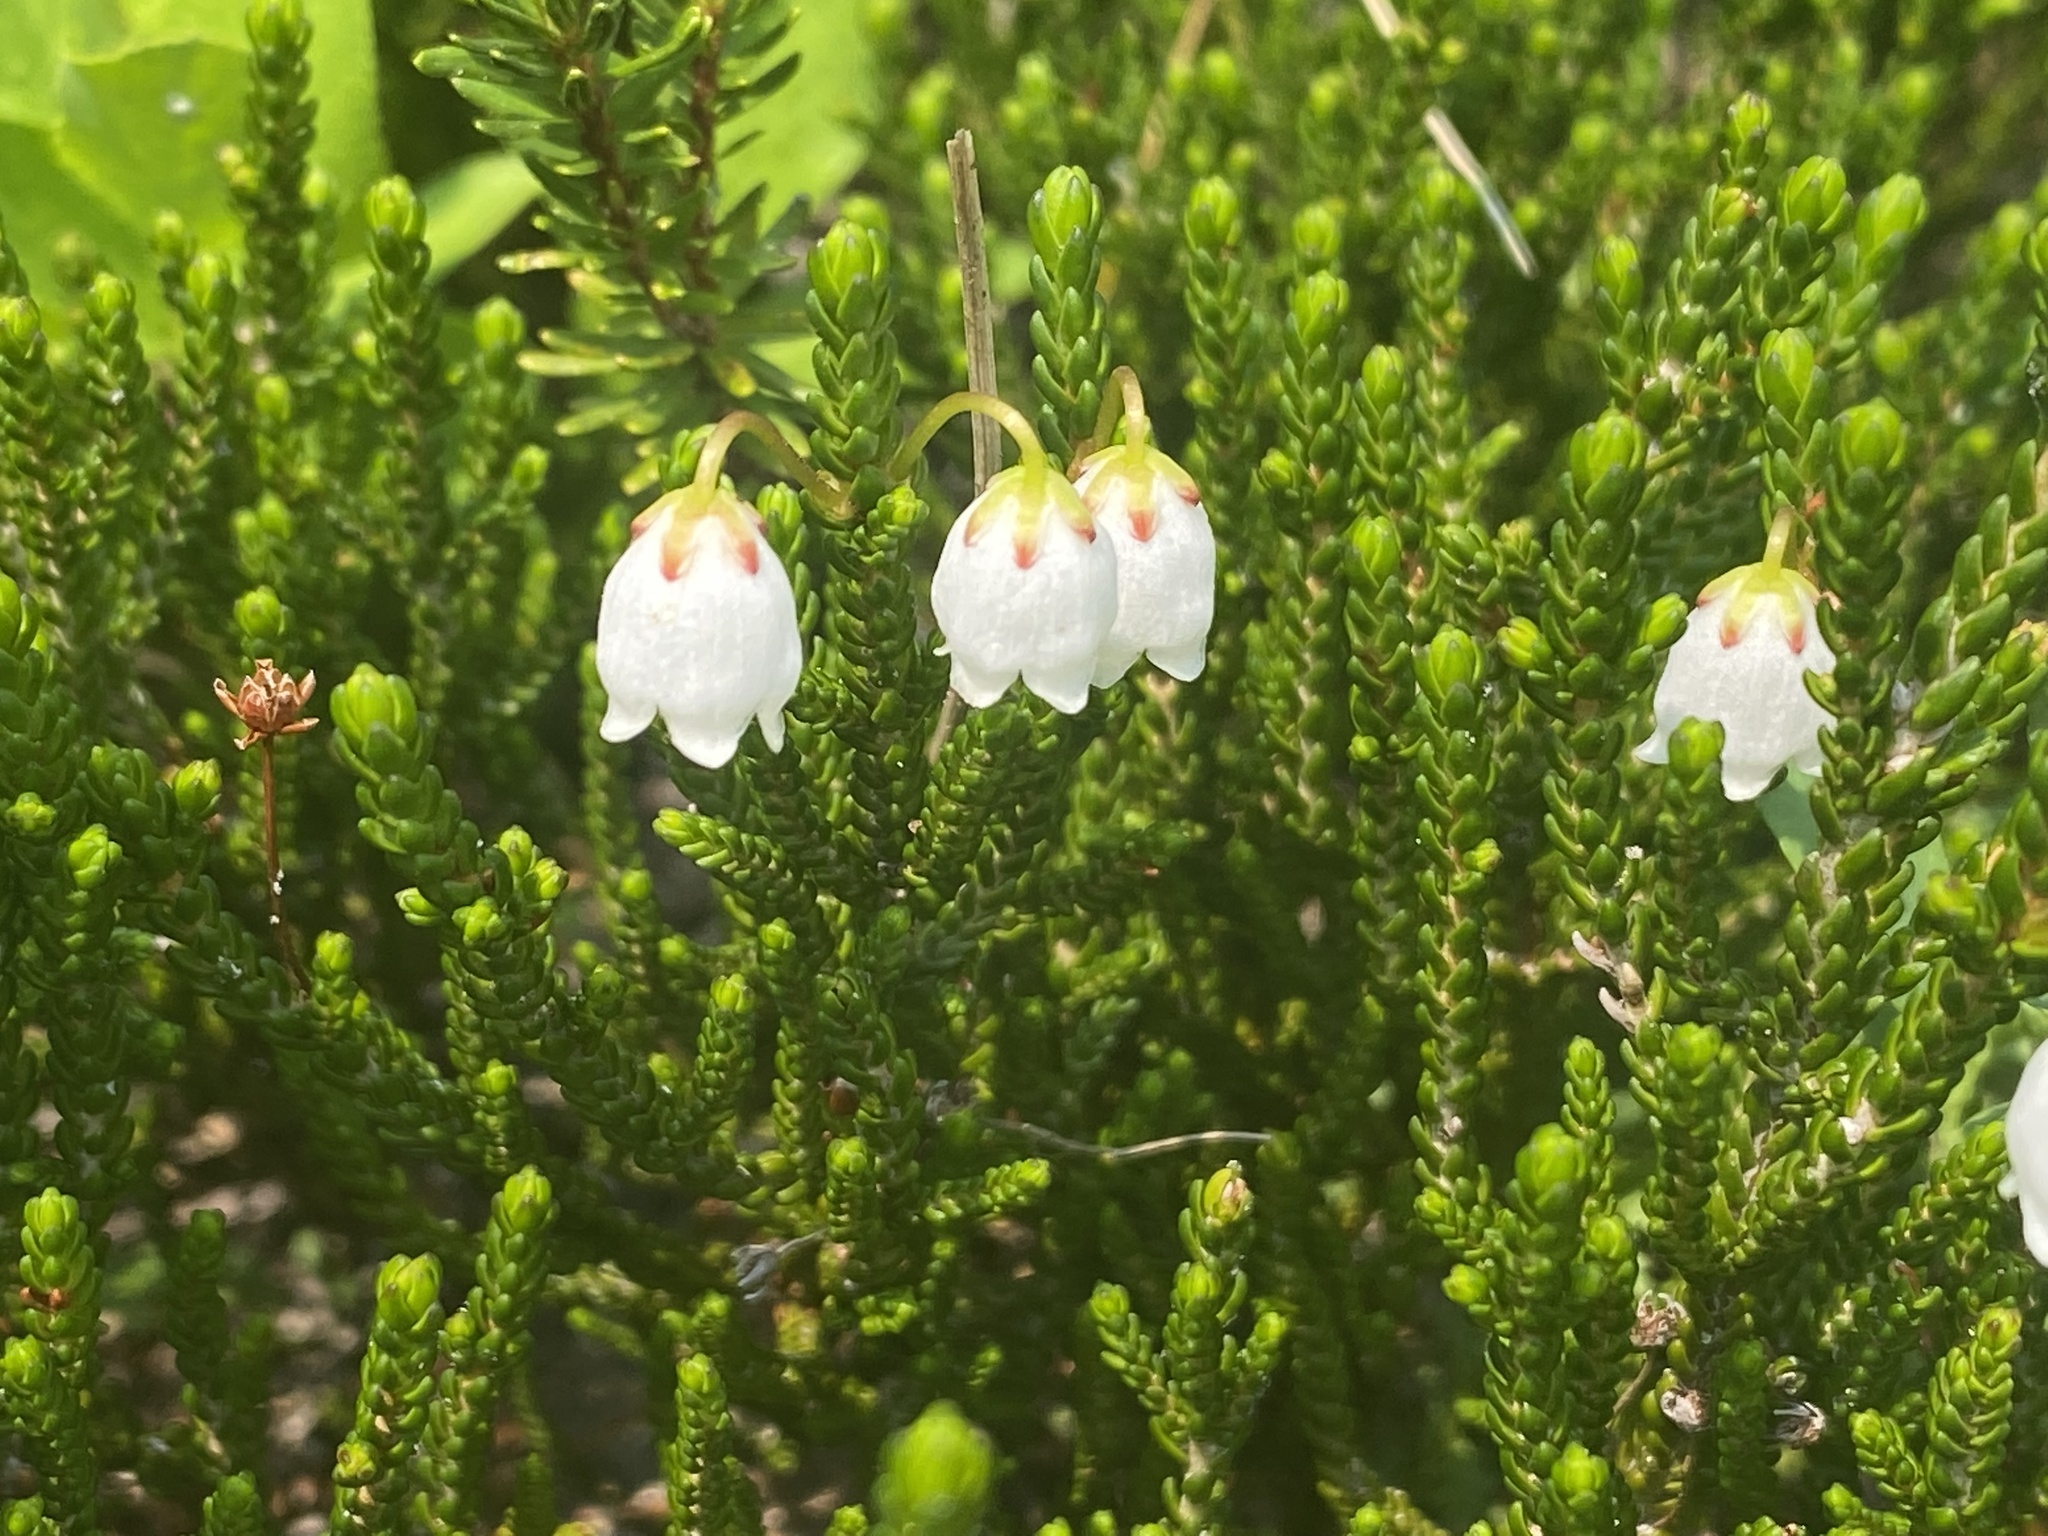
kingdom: Plantae
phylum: Tracheophyta
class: Magnoliopsida
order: Ericales
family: Ericaceae
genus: Cassiope
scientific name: Cassiope mertensiana
